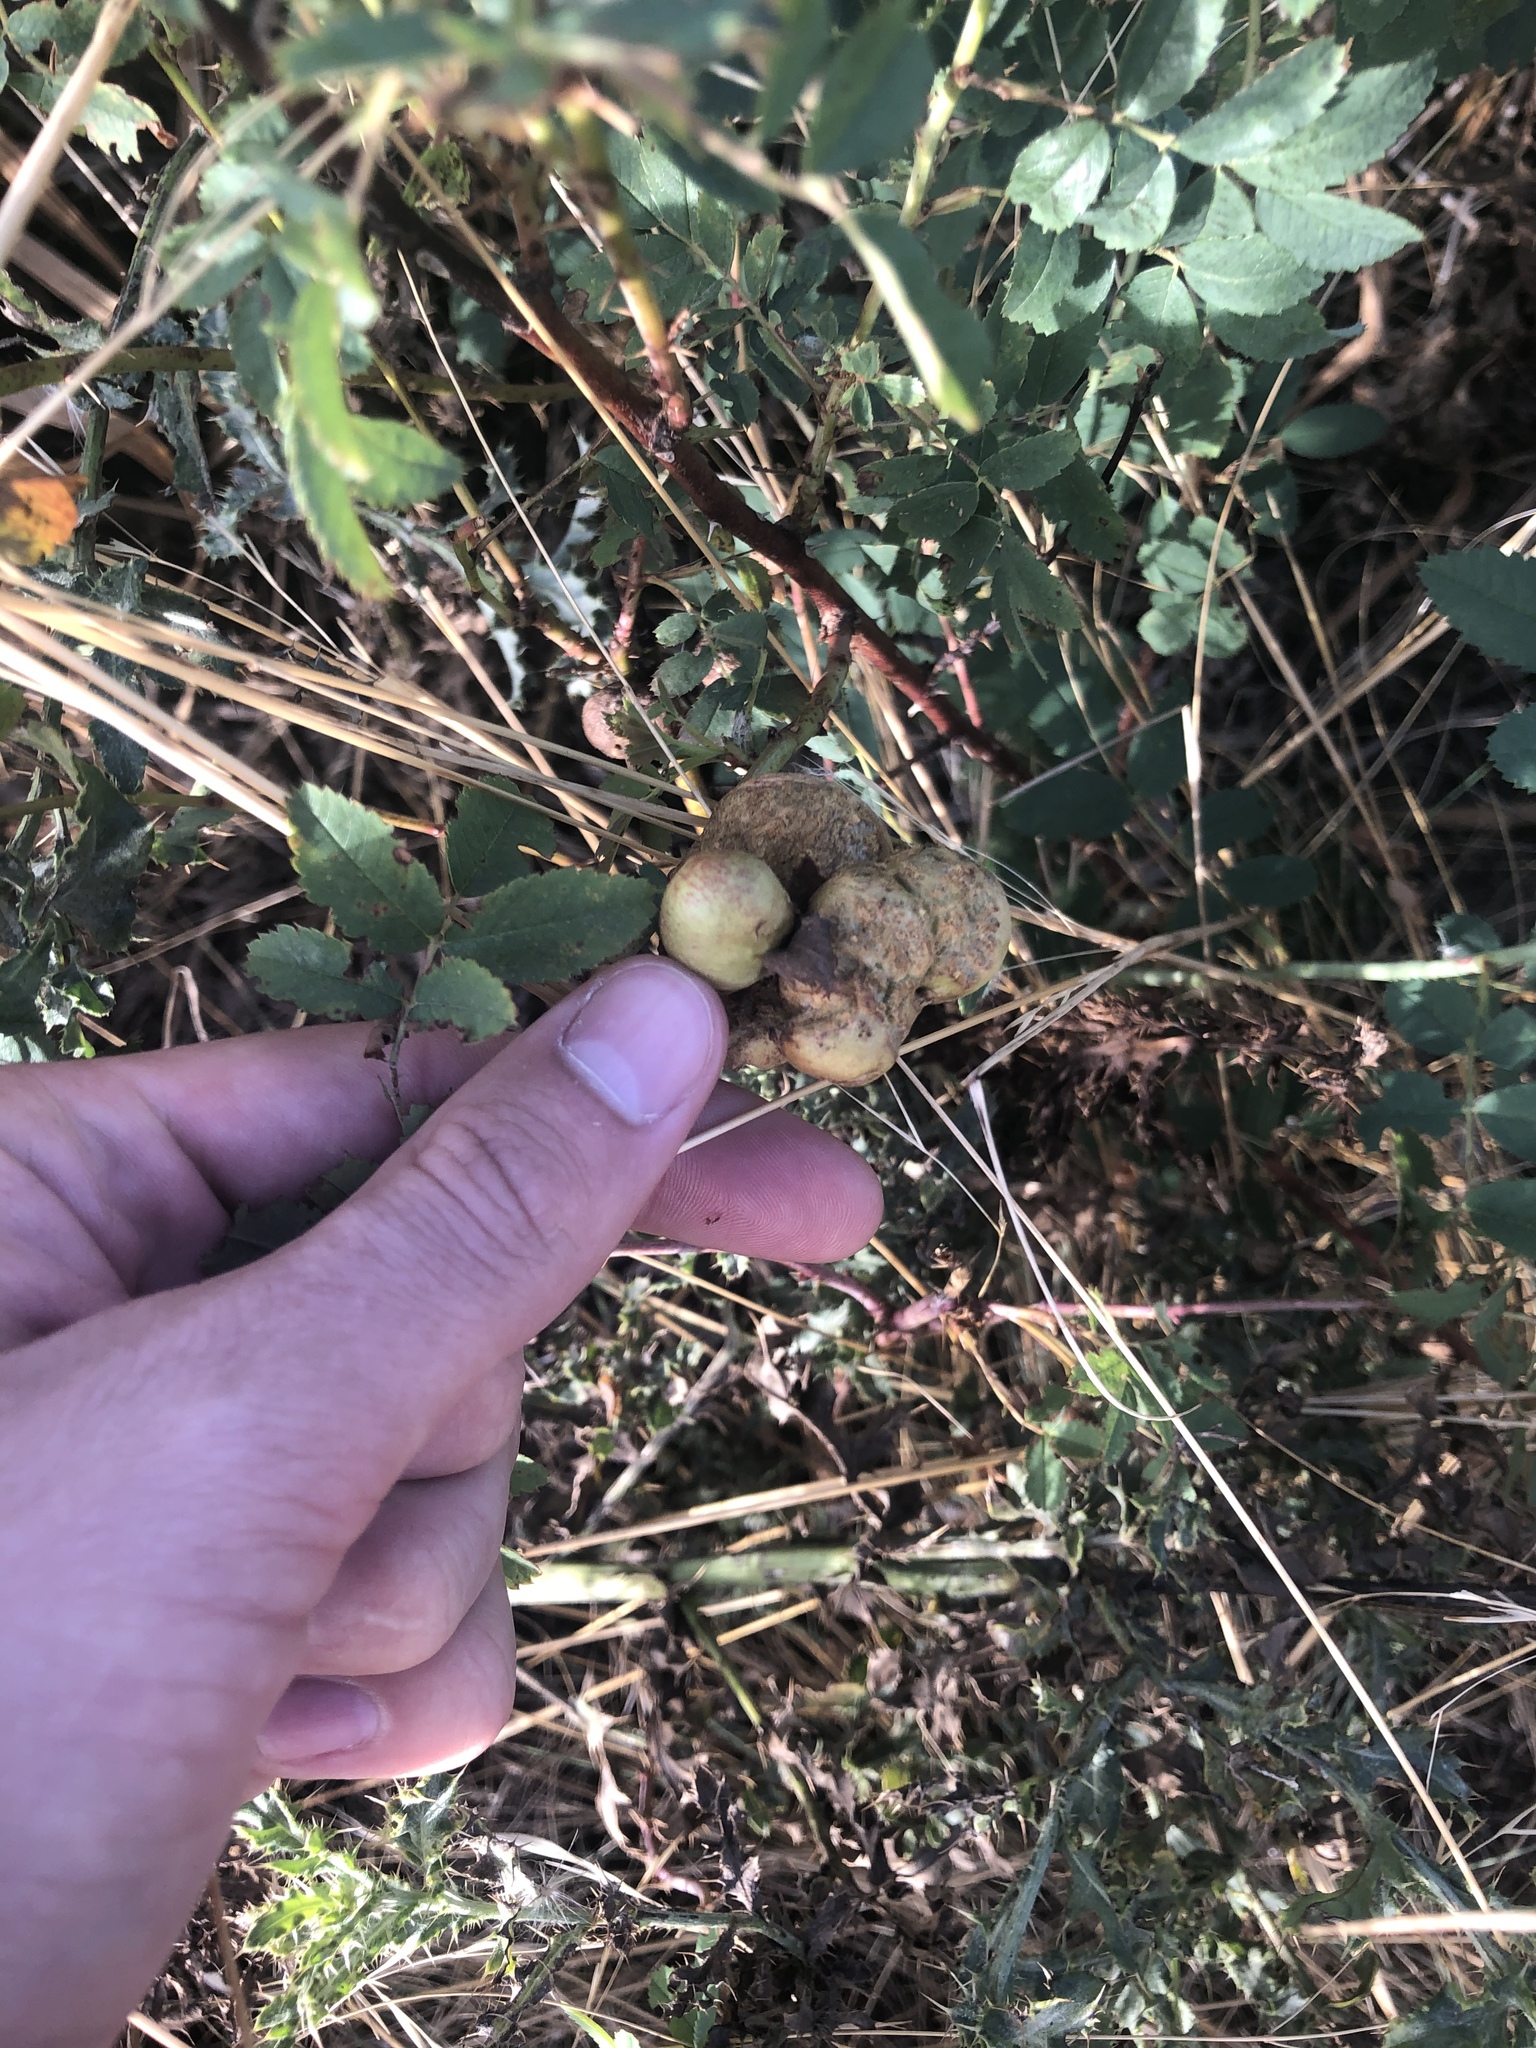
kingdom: Animalia
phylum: Arthropoda
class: Insecta
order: Hymenoptera
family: Cynipidae
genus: Diplolepis
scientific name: Diplolepis variabilis
